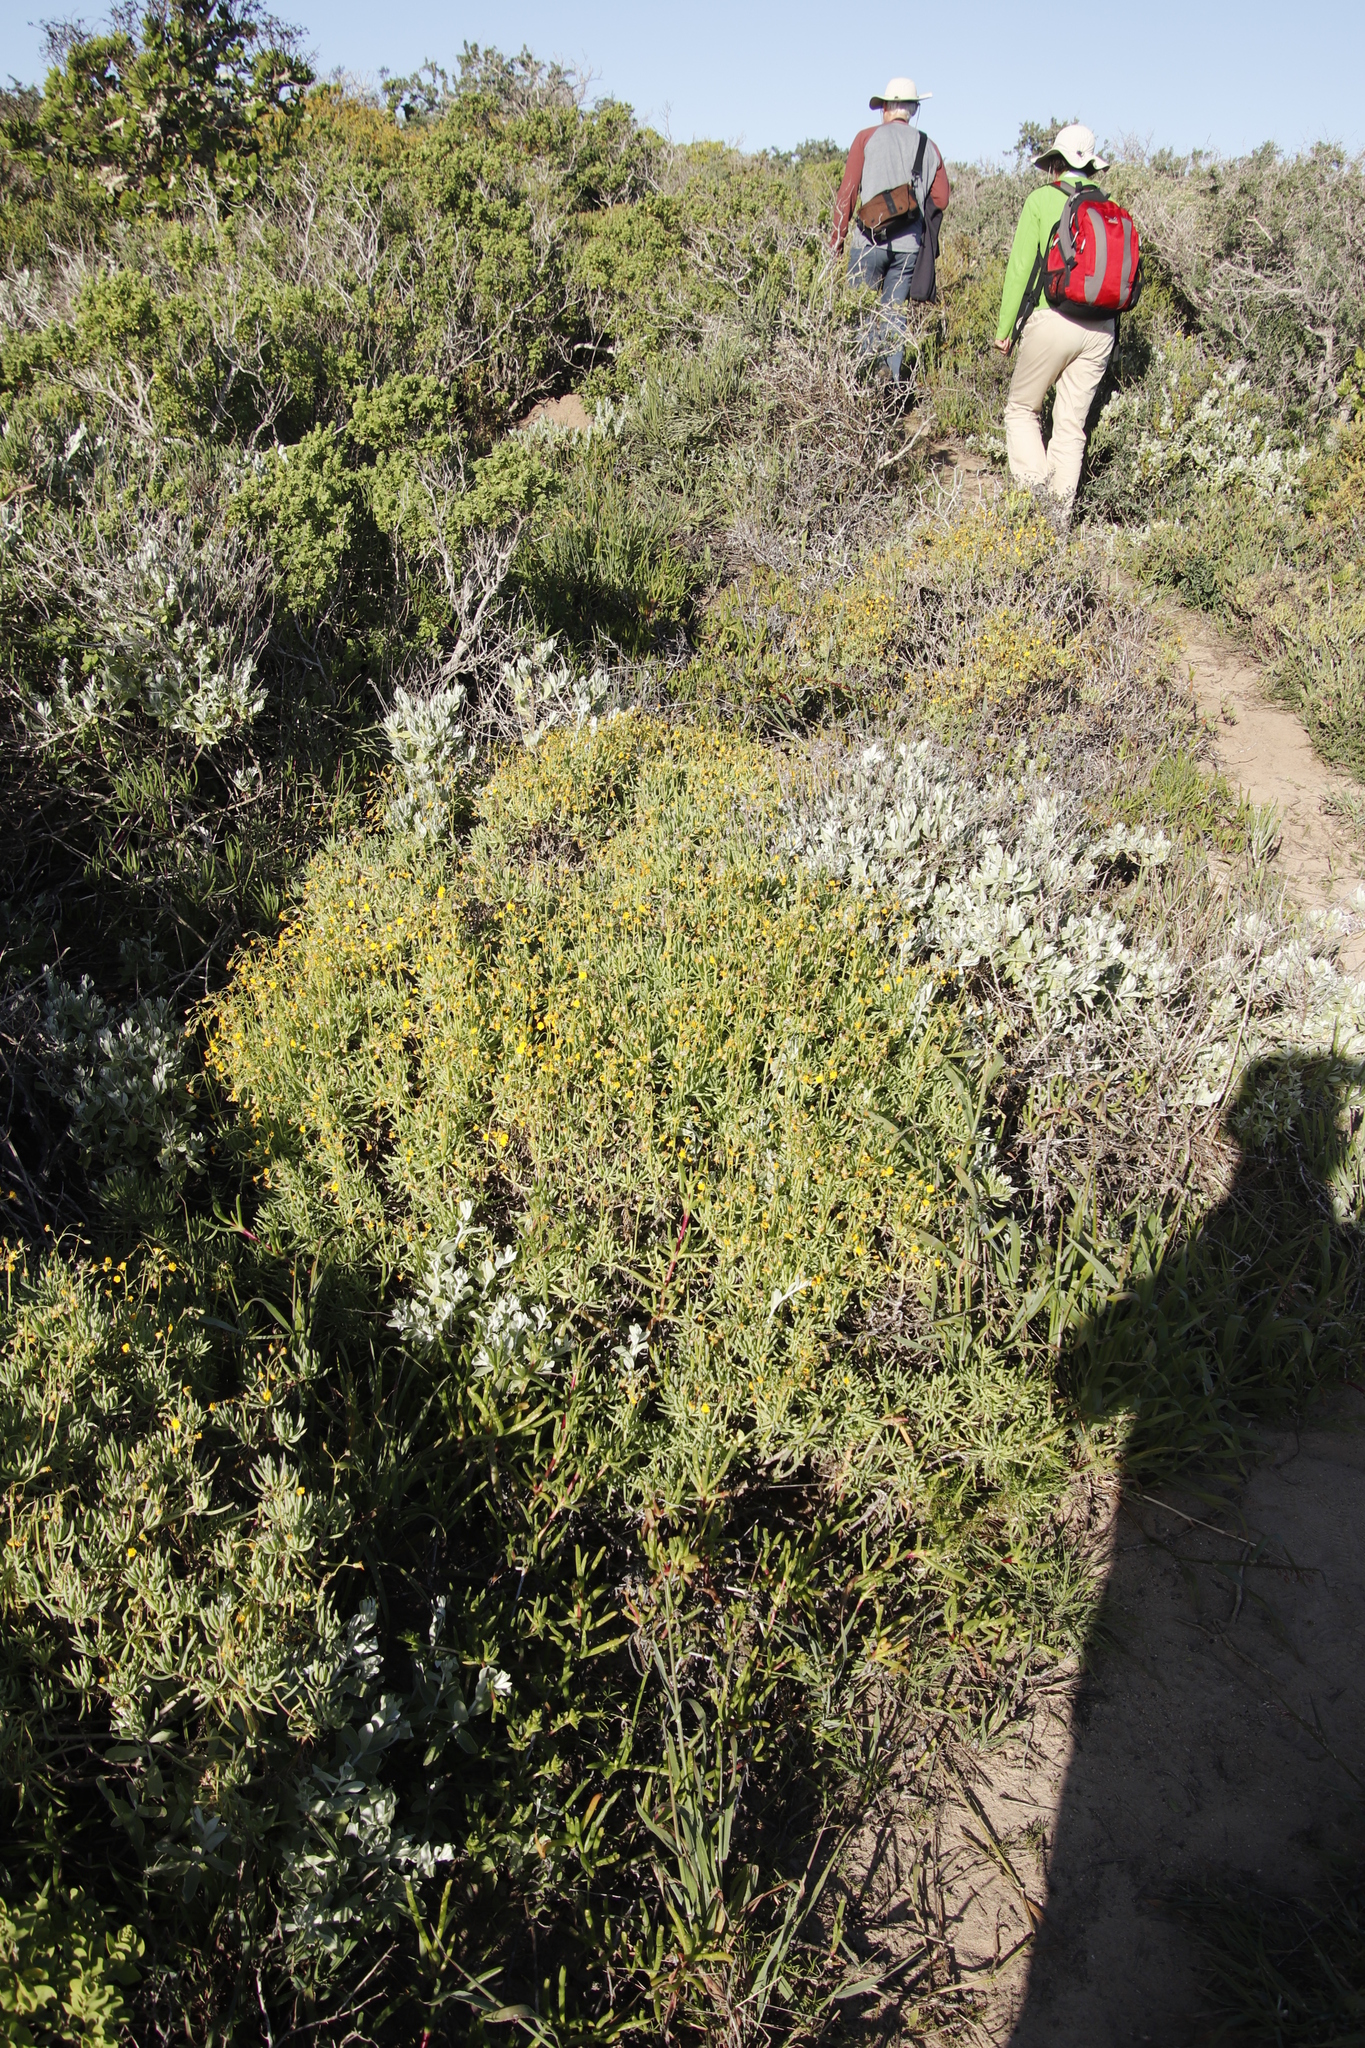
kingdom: Plantae
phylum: Tracheophyta
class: Magnoliopsida
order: Asterales
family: Asteraceae
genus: Crassothonna
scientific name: Crassothonna cylindrica
